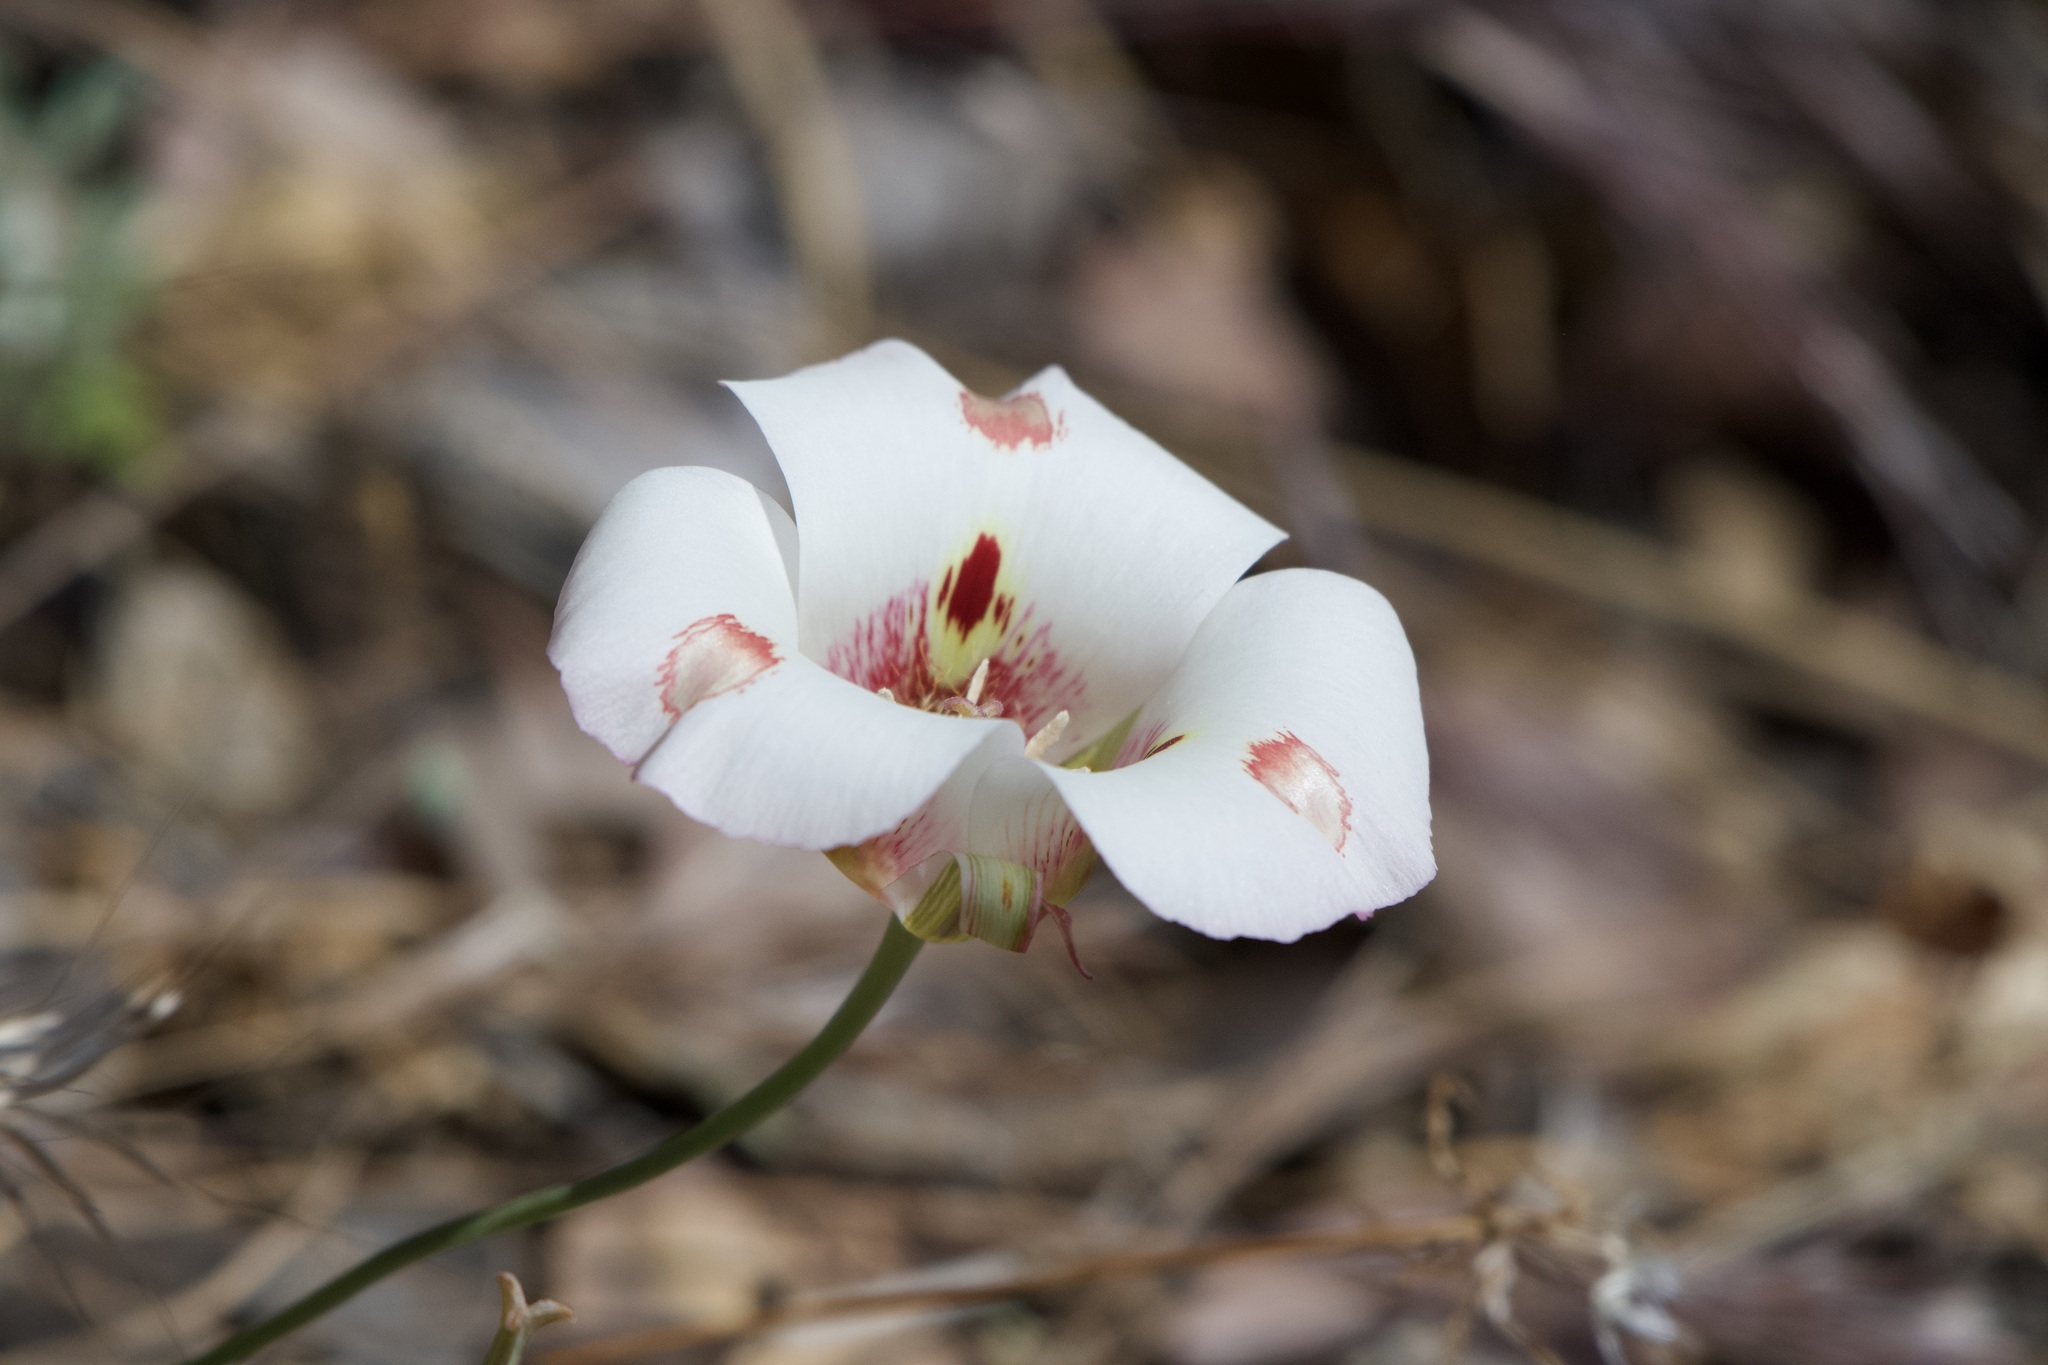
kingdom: Plantae
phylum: Tracheophyta
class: Liliopsida
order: Liliales
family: Liliaceae
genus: Calochortus
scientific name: Calochortus venustus
